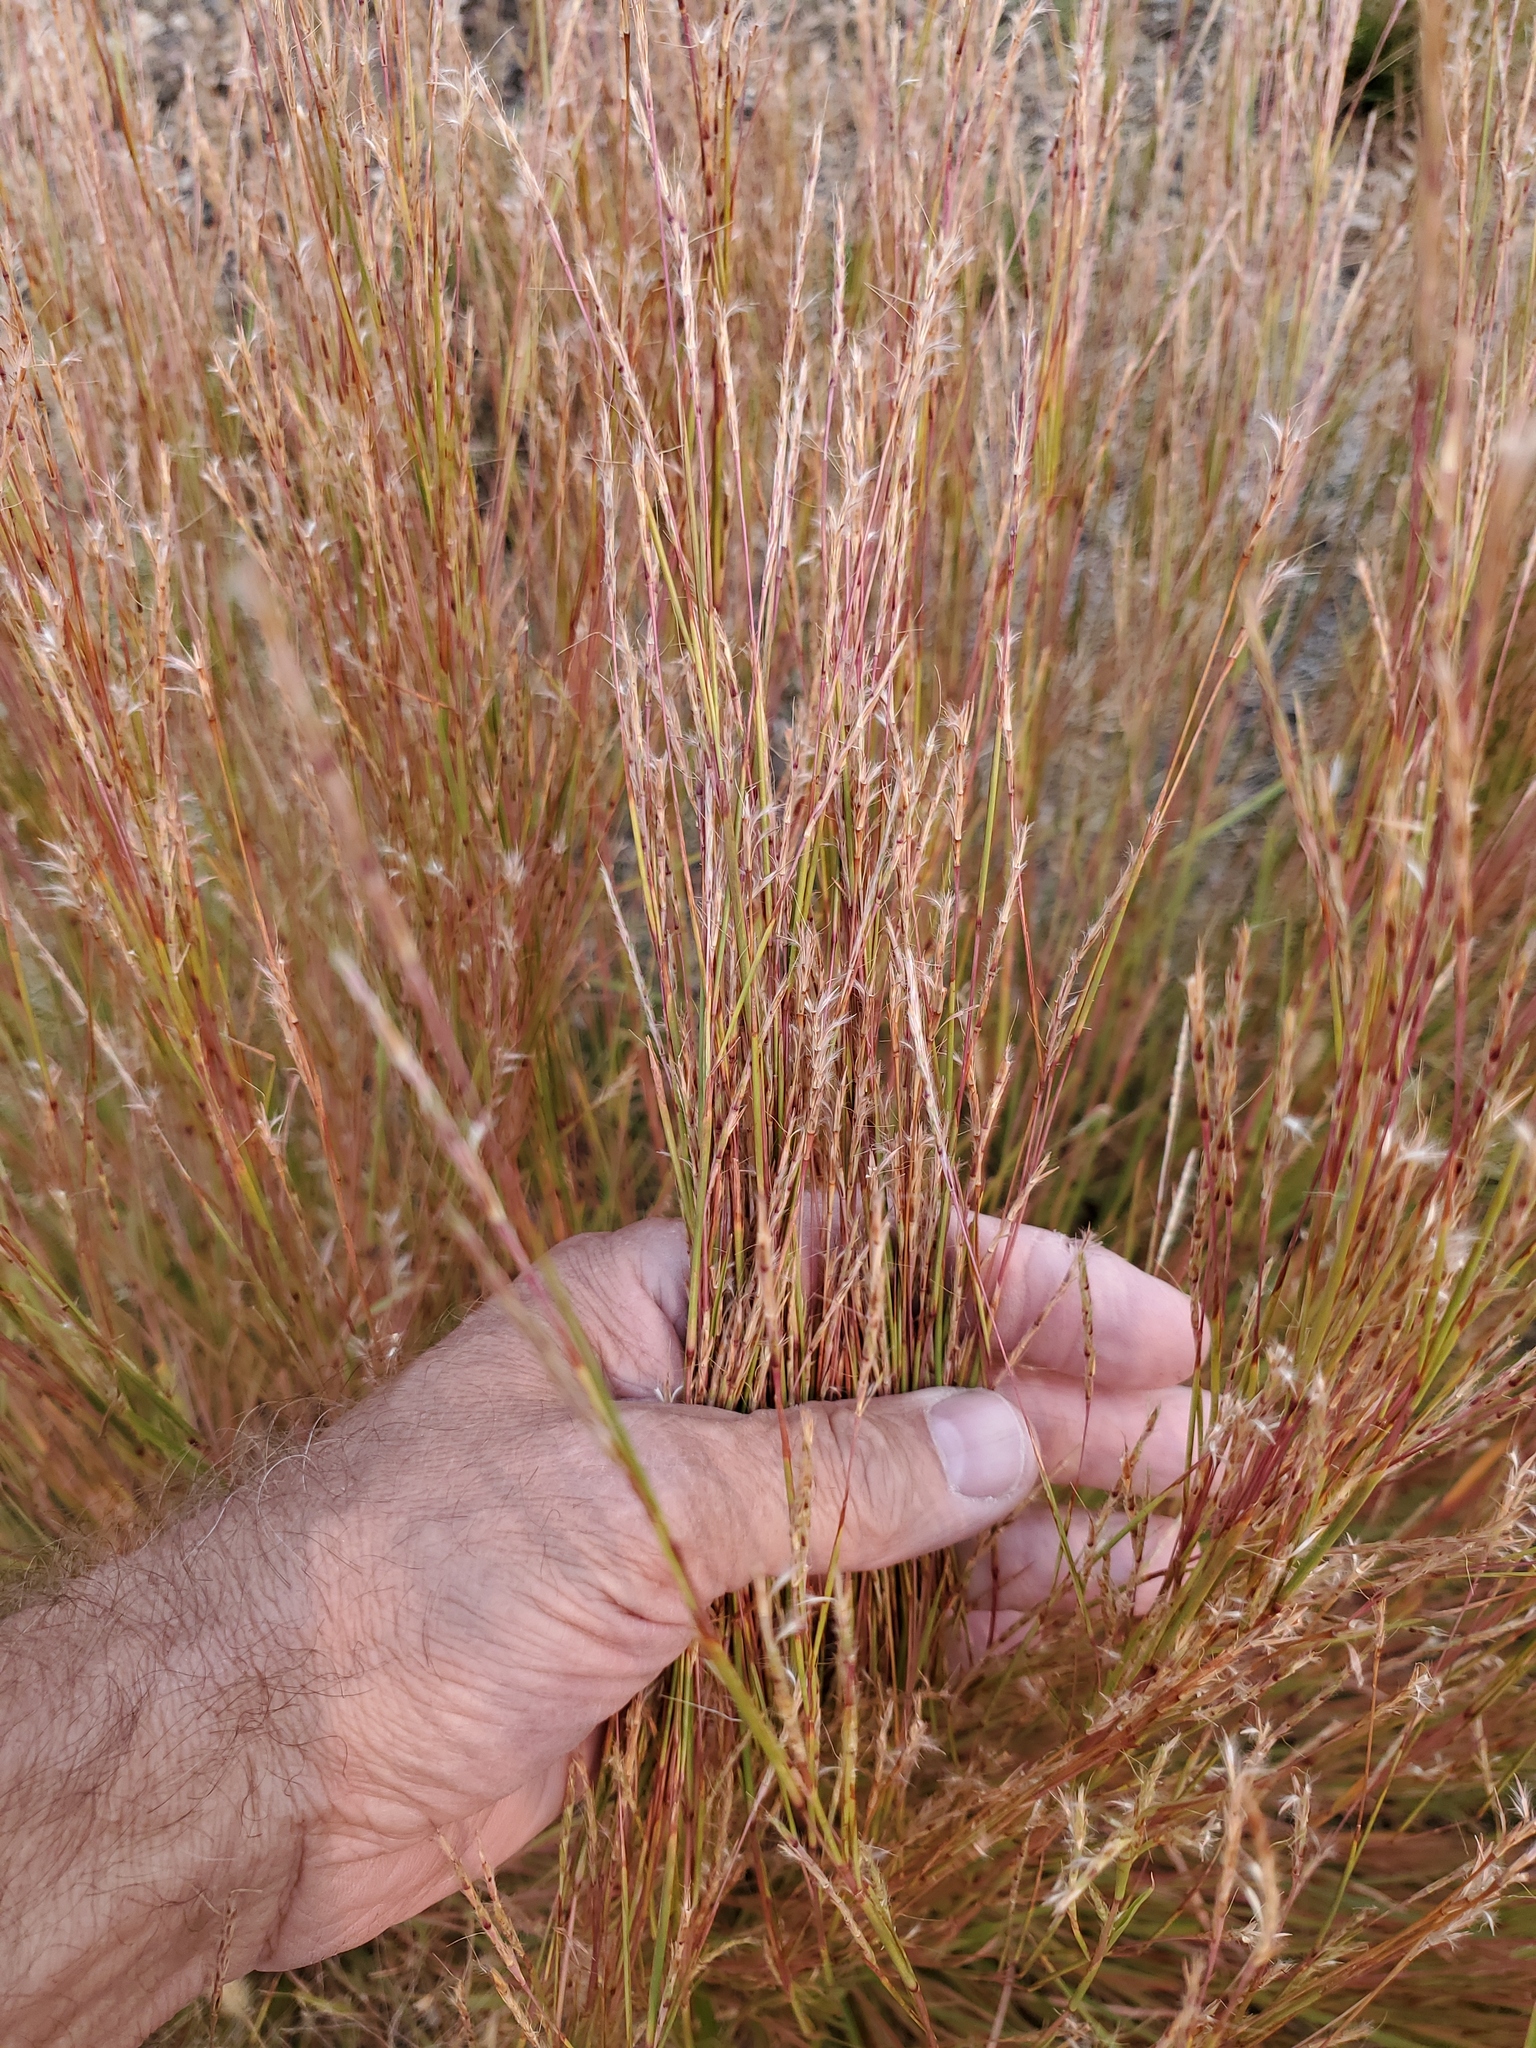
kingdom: Plantae
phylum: Tracheophyta
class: Liliopsida
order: Poales
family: Poaceae
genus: Schizachyrium
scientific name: Schizachyrium scoparium
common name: Little bluestem
